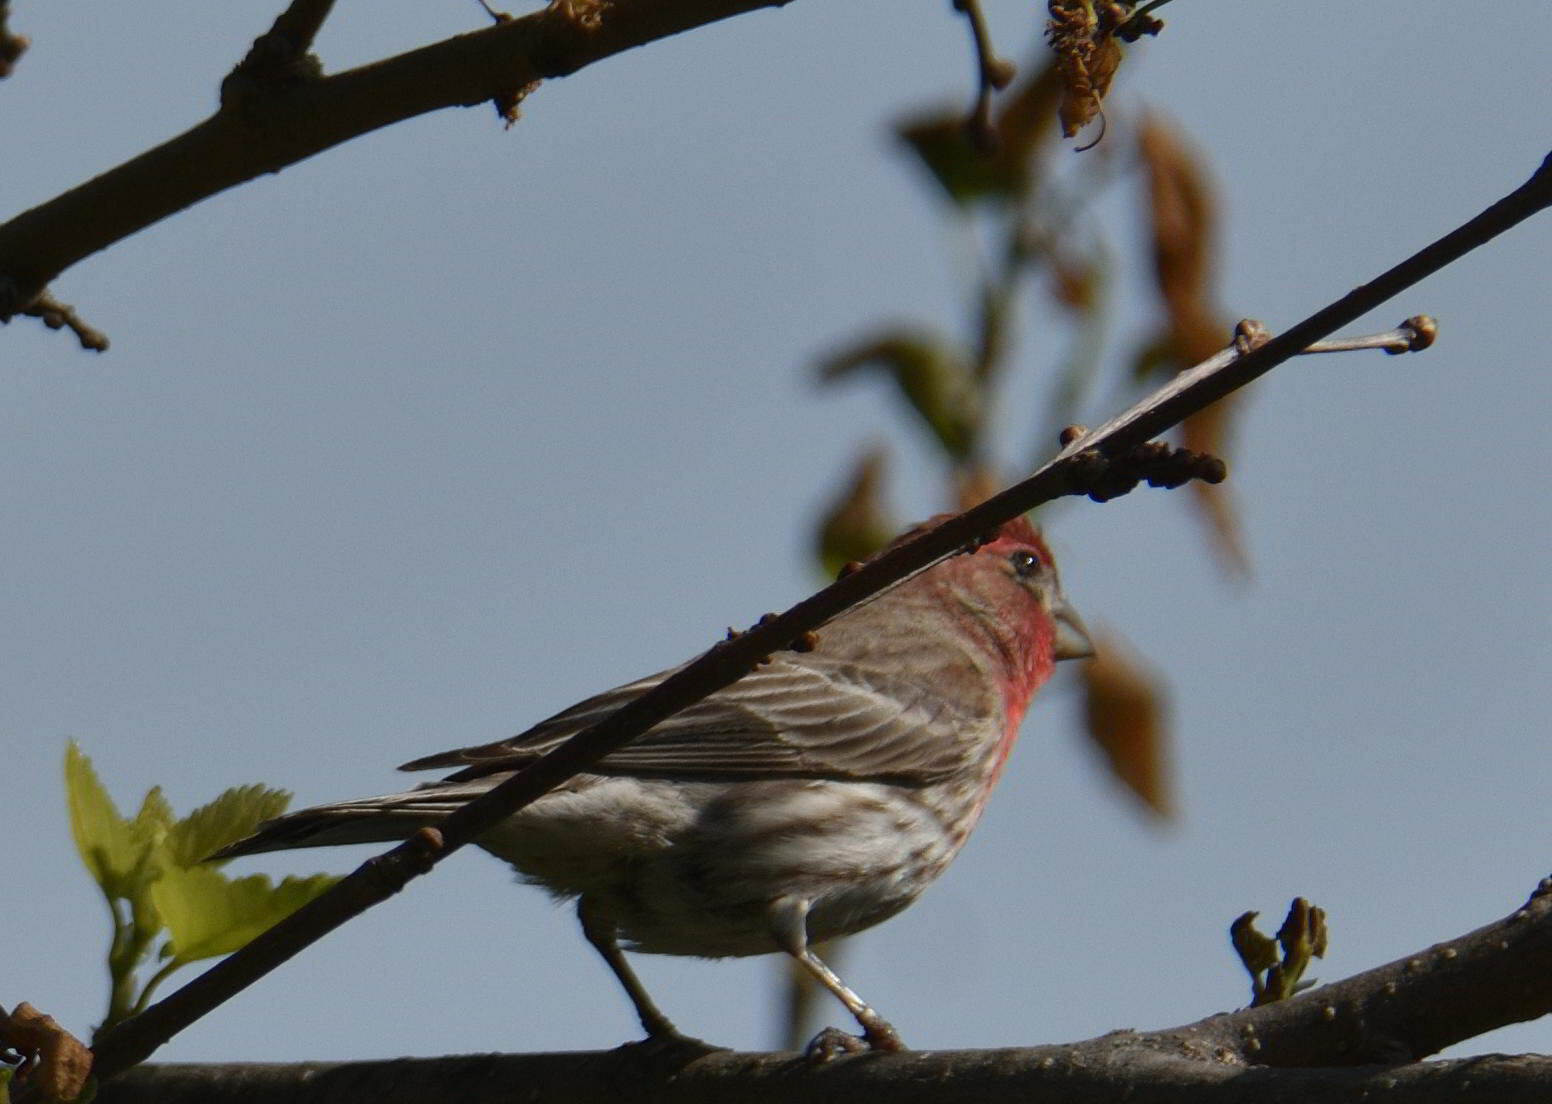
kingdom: Animalia
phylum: Chordata
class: Aves
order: Passeriformes
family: Fringillidae
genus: Haemorhous
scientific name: Haemorhous mexicanus
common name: House finch
